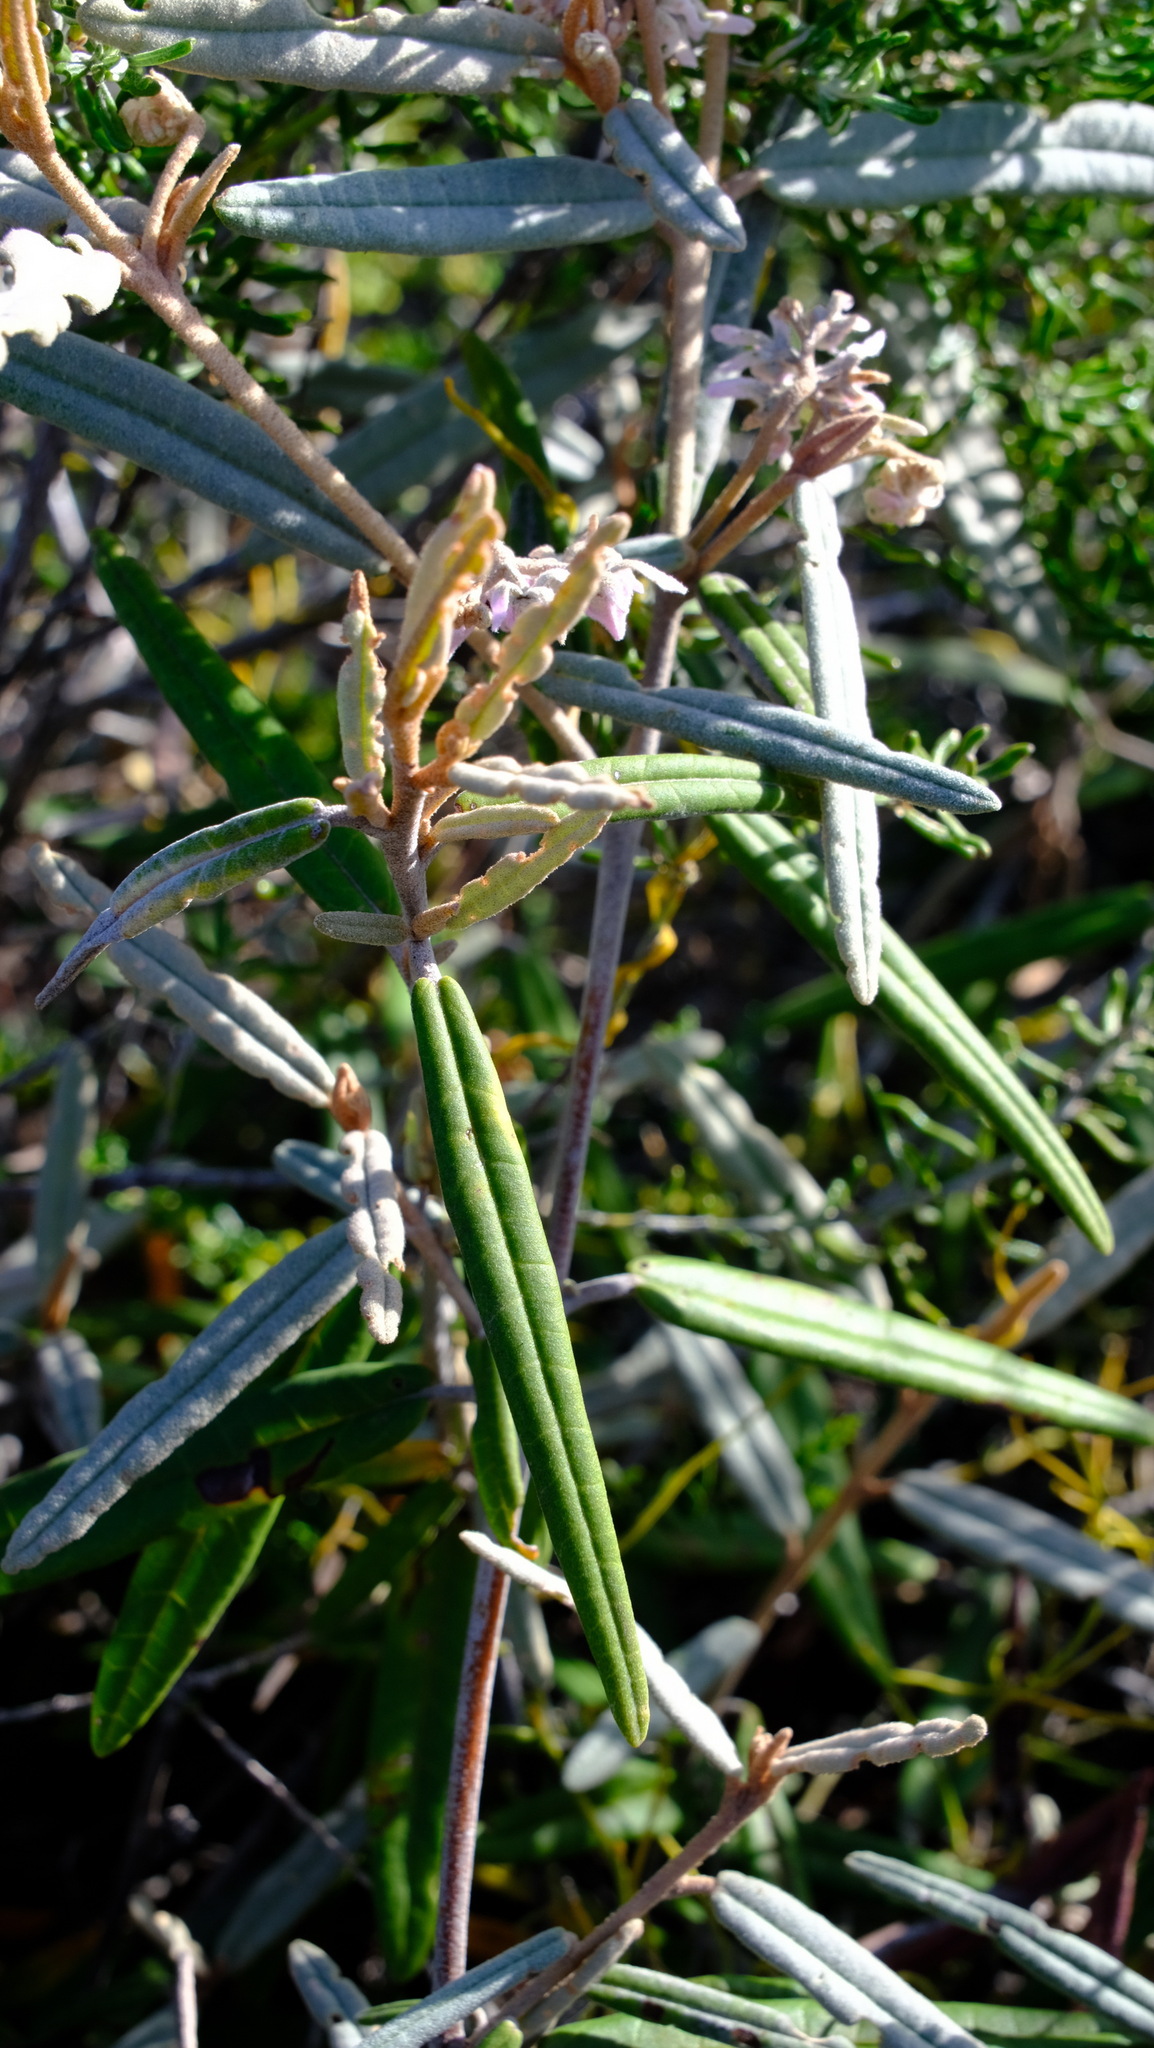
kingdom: Plantae
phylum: Tracheophyta
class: Magnoliopsida
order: Malvales
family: Malvaceae
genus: Lasiopetalum
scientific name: Lasiopetalum angustifolium
